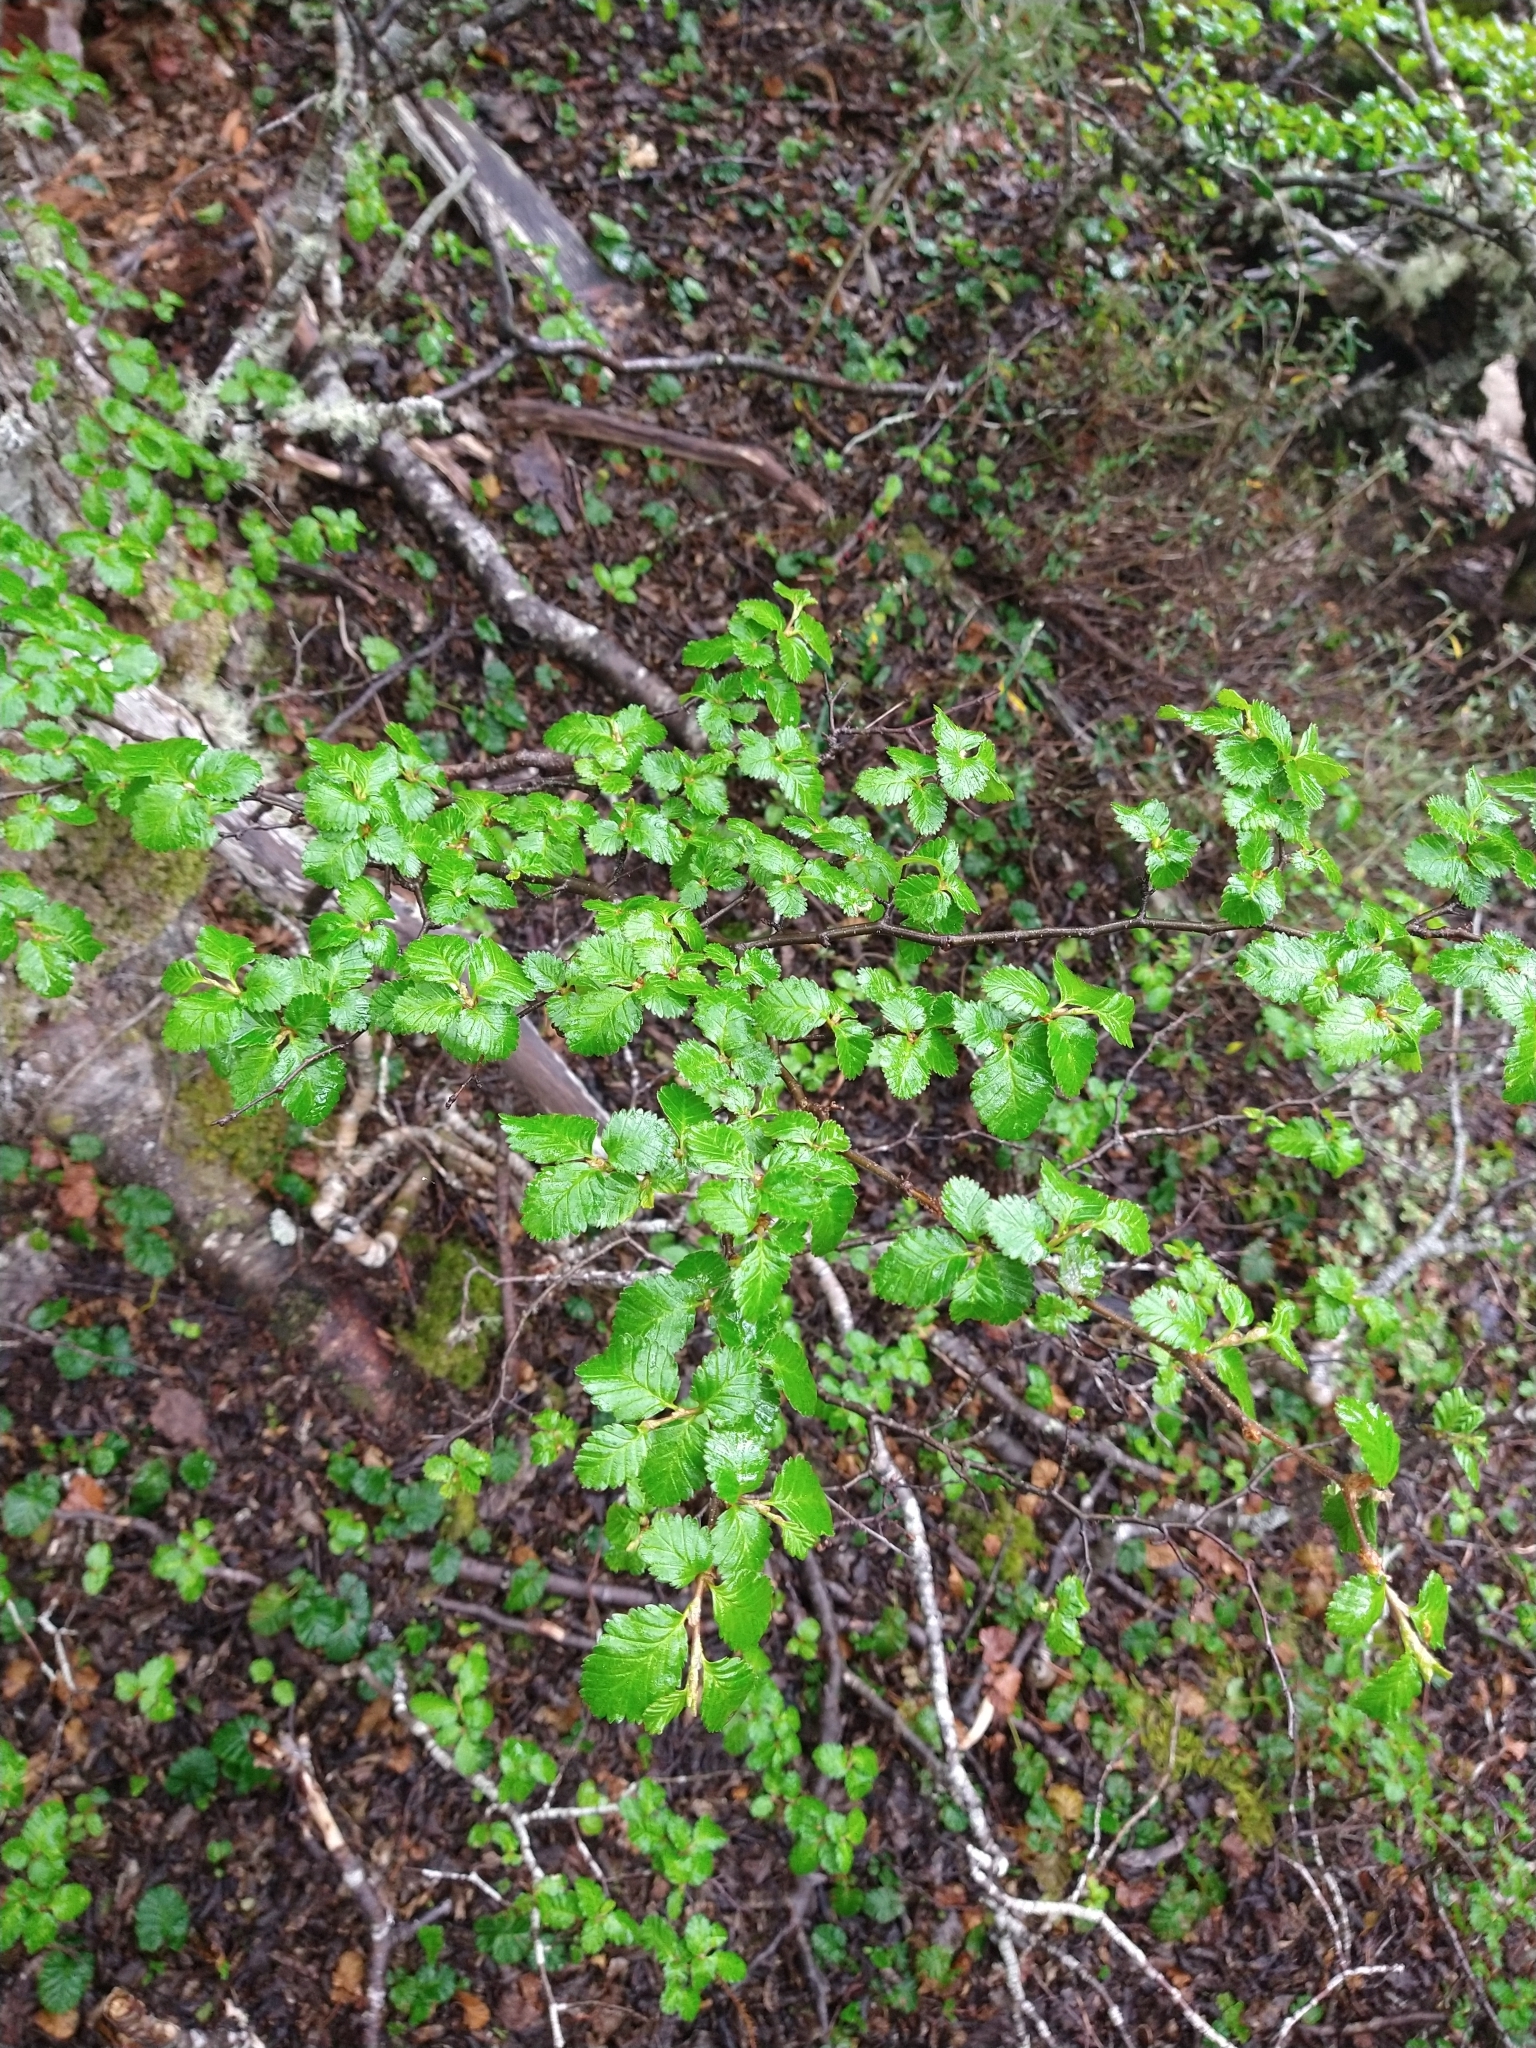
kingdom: Plantae
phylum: Tracheophyta
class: Magnoliopsida
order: Fagales
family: Nothofagaceae
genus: Nothofagus
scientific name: Nothofagus pumilio
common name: Lenga beech
